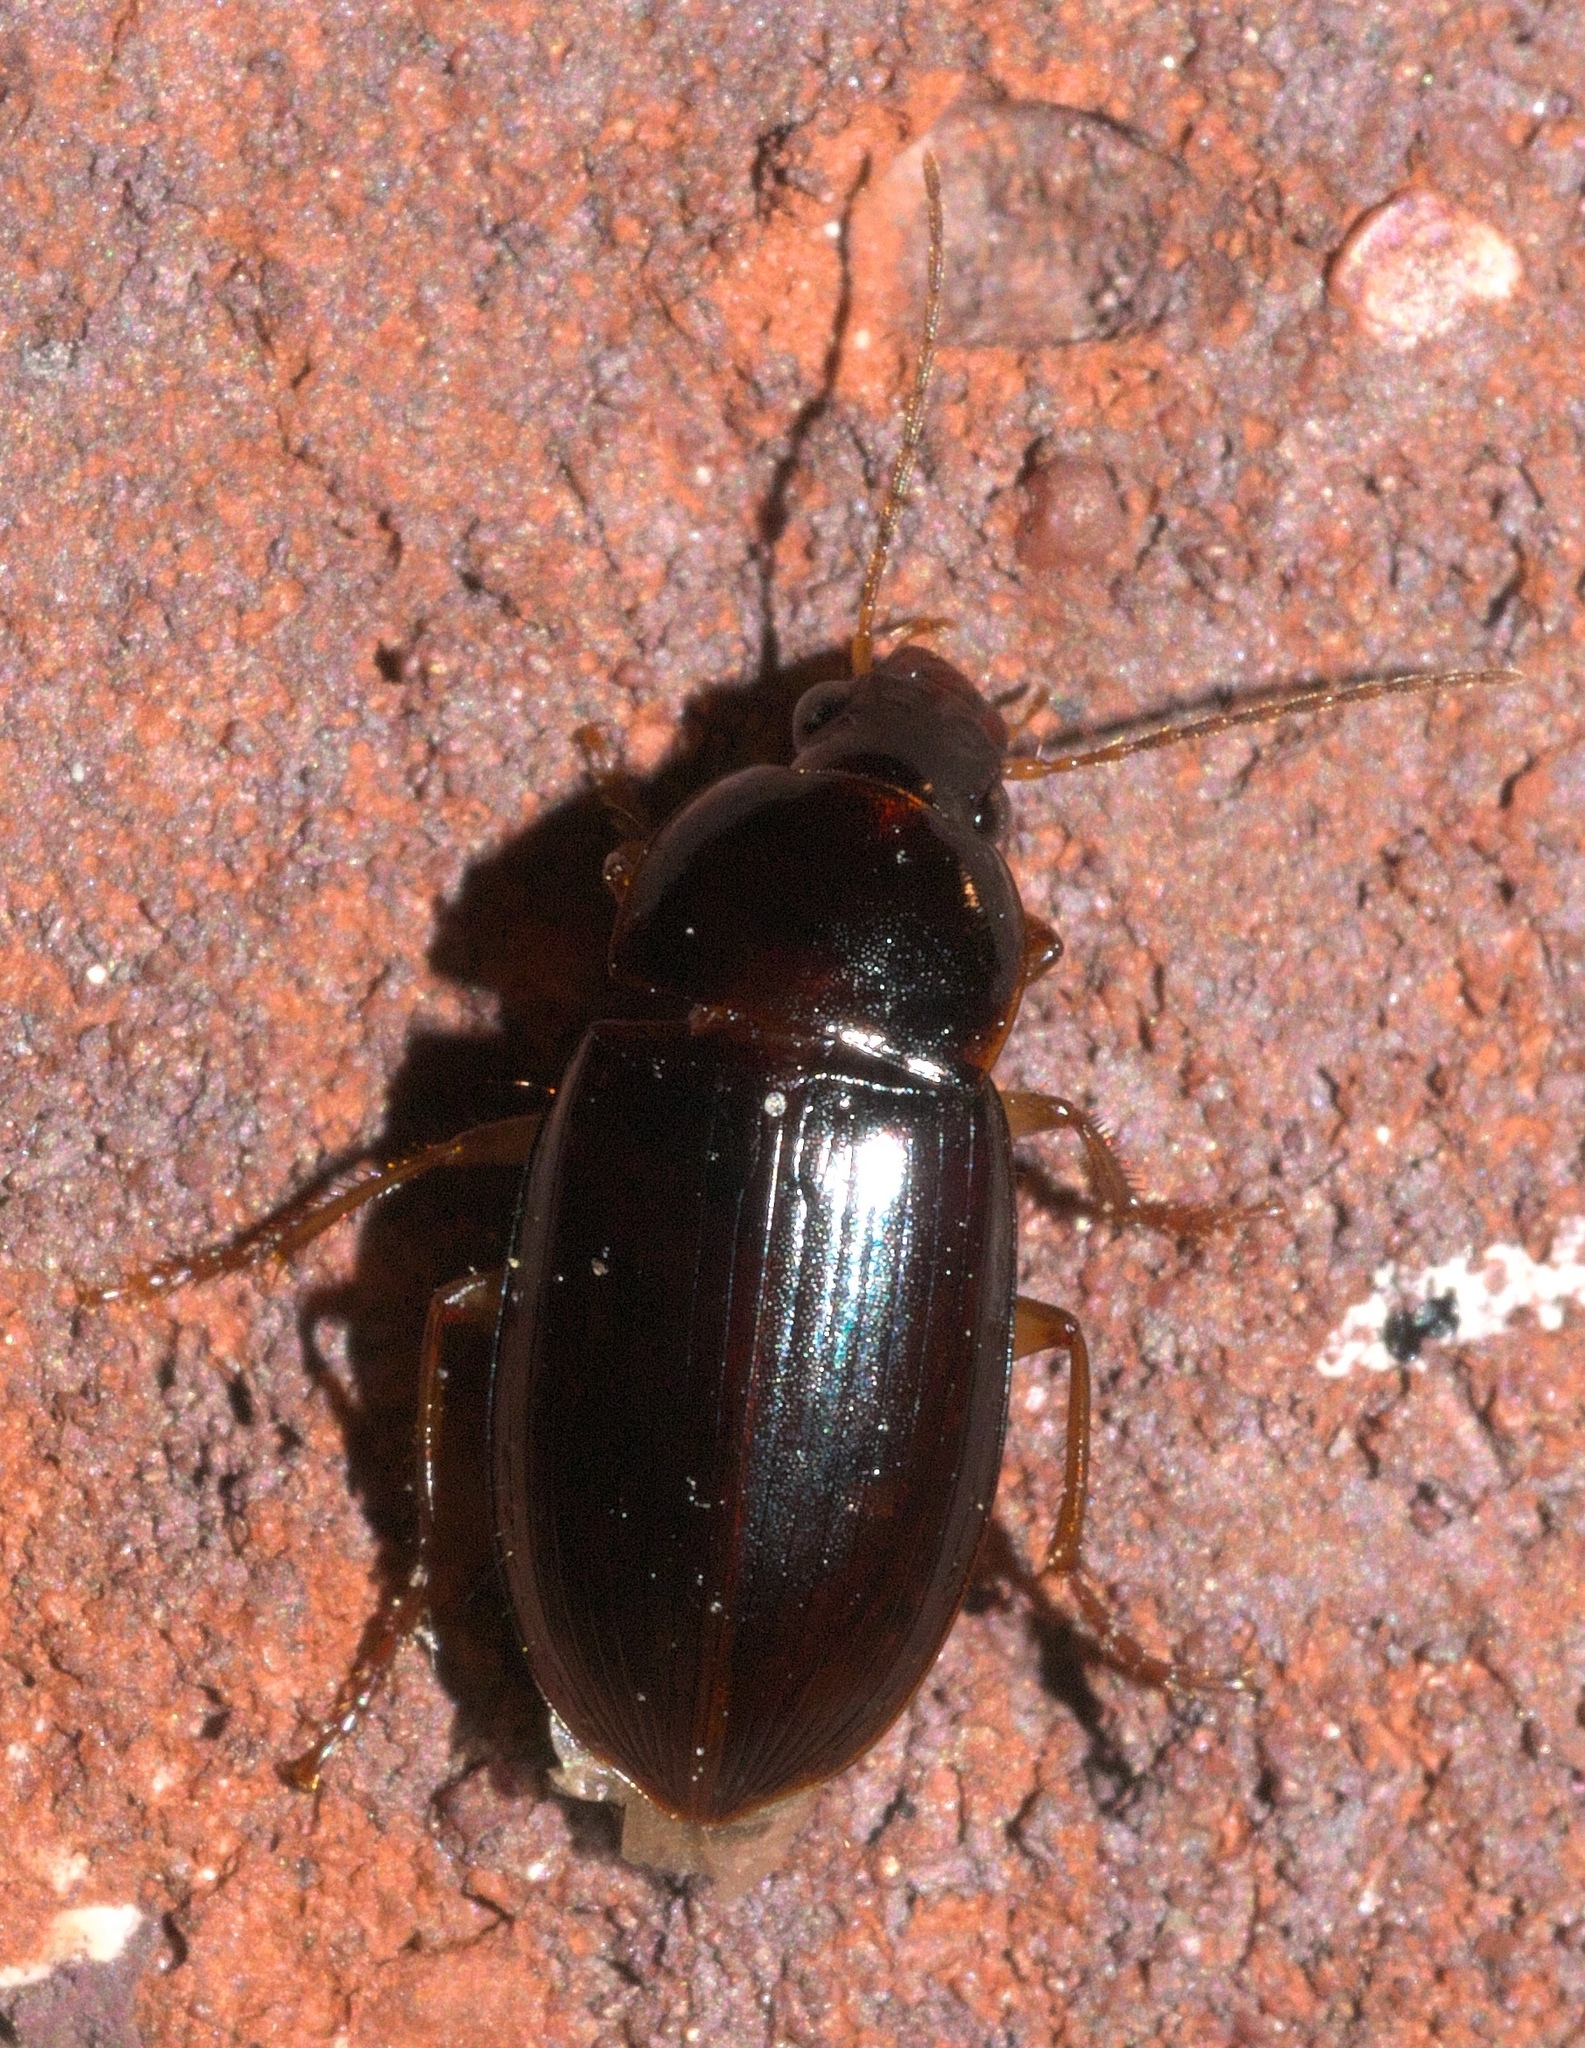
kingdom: Animalia
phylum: Arthropoda
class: Insecta
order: Coleoptera
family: Carabidae
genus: Notiobia
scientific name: Notiobia sayi
